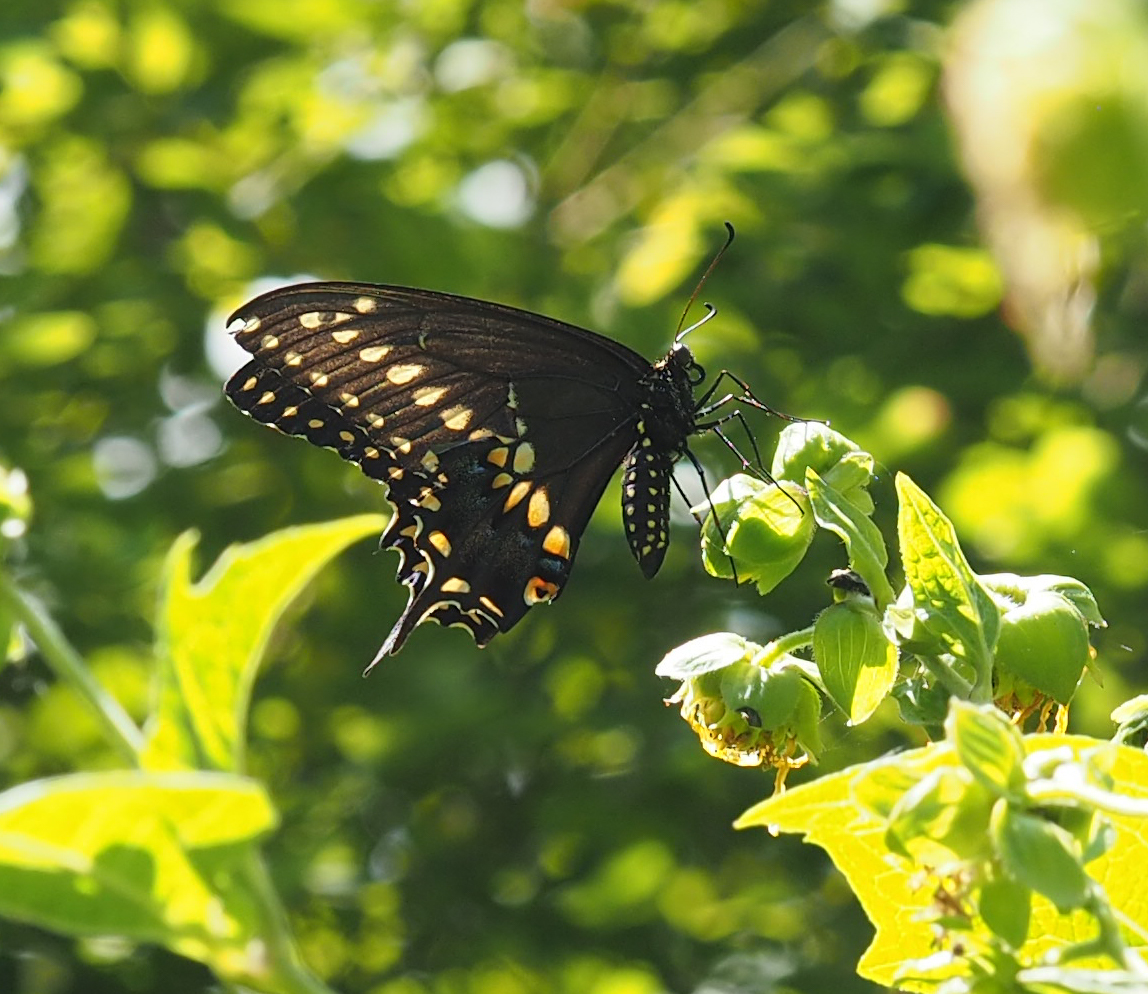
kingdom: Animalia
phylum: Arthropoda
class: Insecta
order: Lepidoptera
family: Papilionidae
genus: Papilio
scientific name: Papilio polyxenes
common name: Black swallowtail
